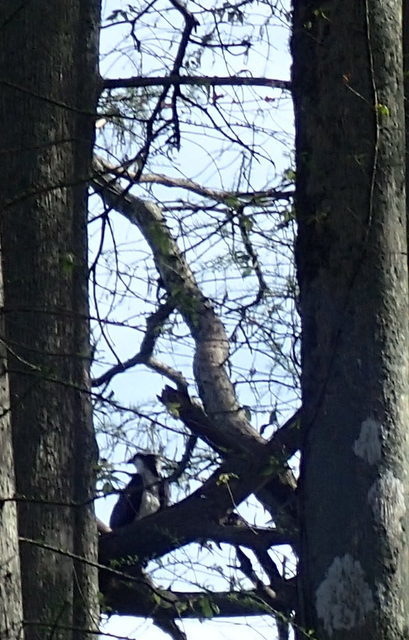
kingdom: Animalia
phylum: Chordata
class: Aves
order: Accipitriformes
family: Pandionidae
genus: Pandion
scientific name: Pandion haliaetus
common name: Osprey
